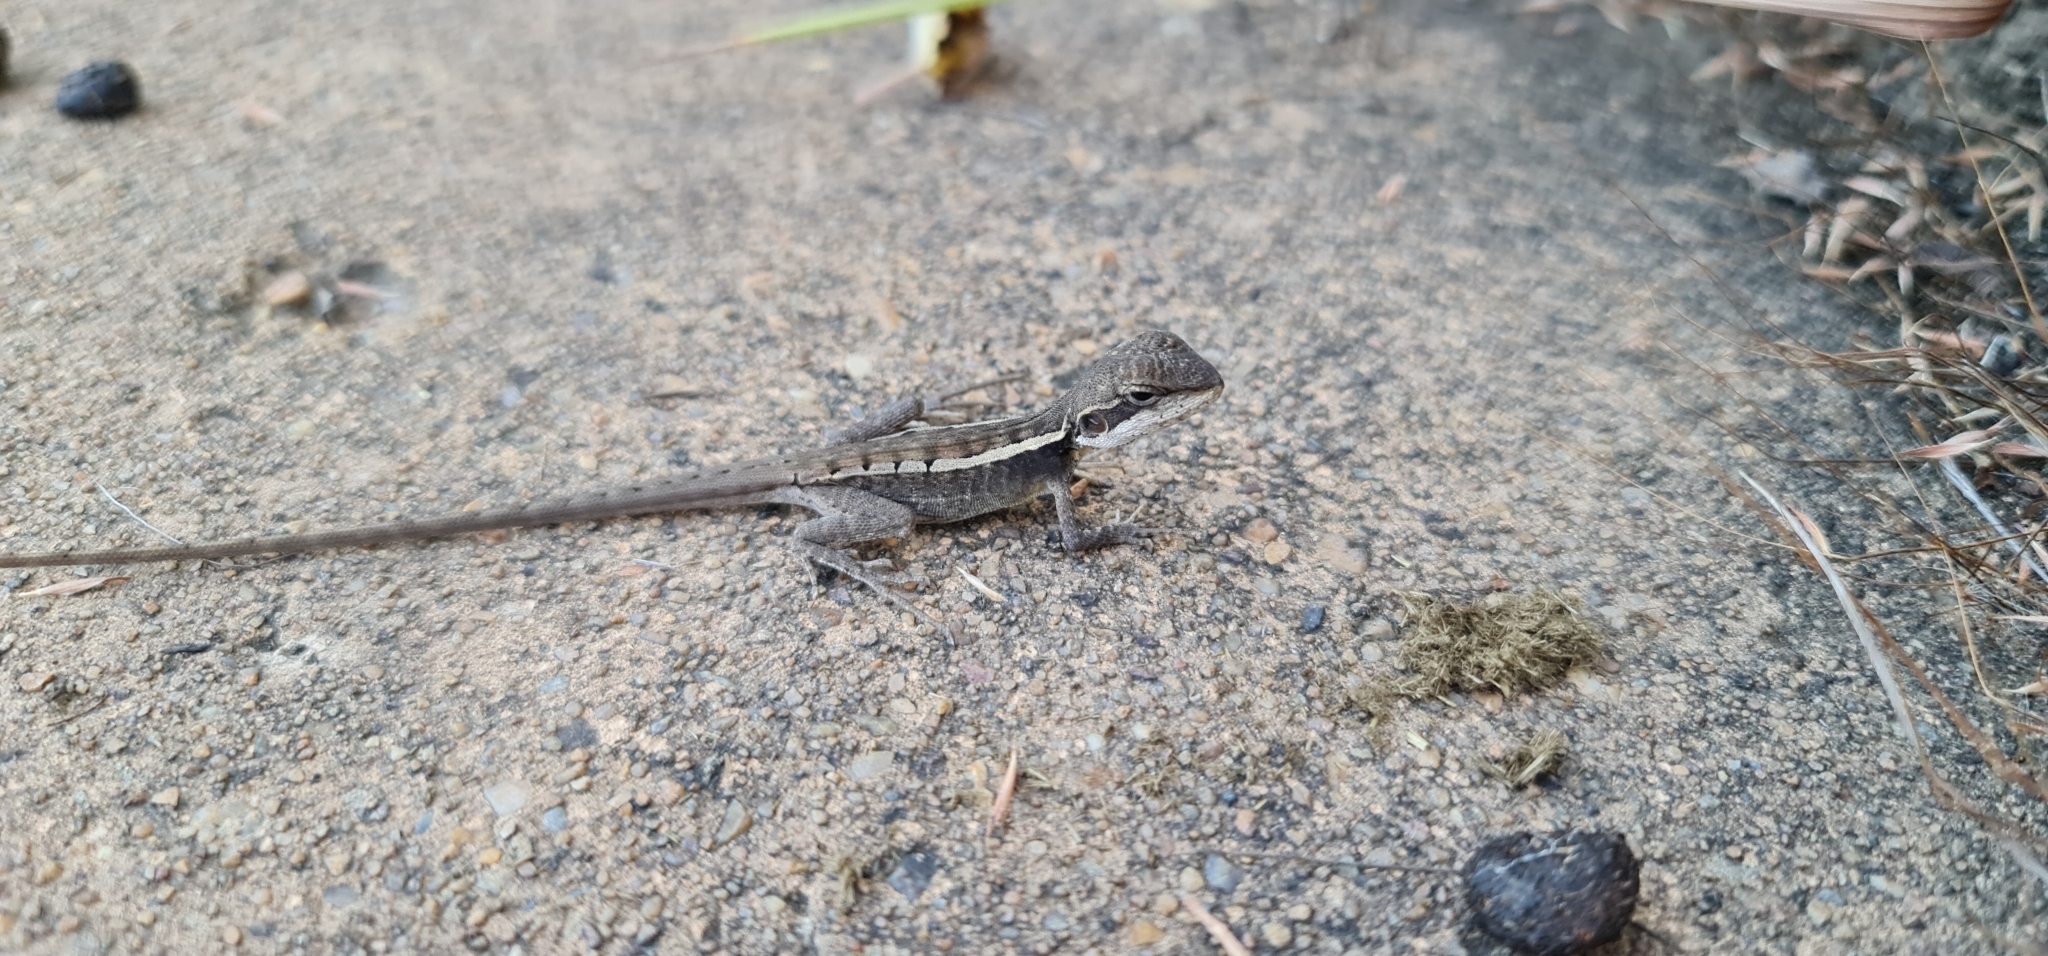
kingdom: Animalia
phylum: Chordata
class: Squamata
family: Agamidae
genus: Lophognathus
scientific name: Lophognathus gilberti
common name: Gilbert's dragon
